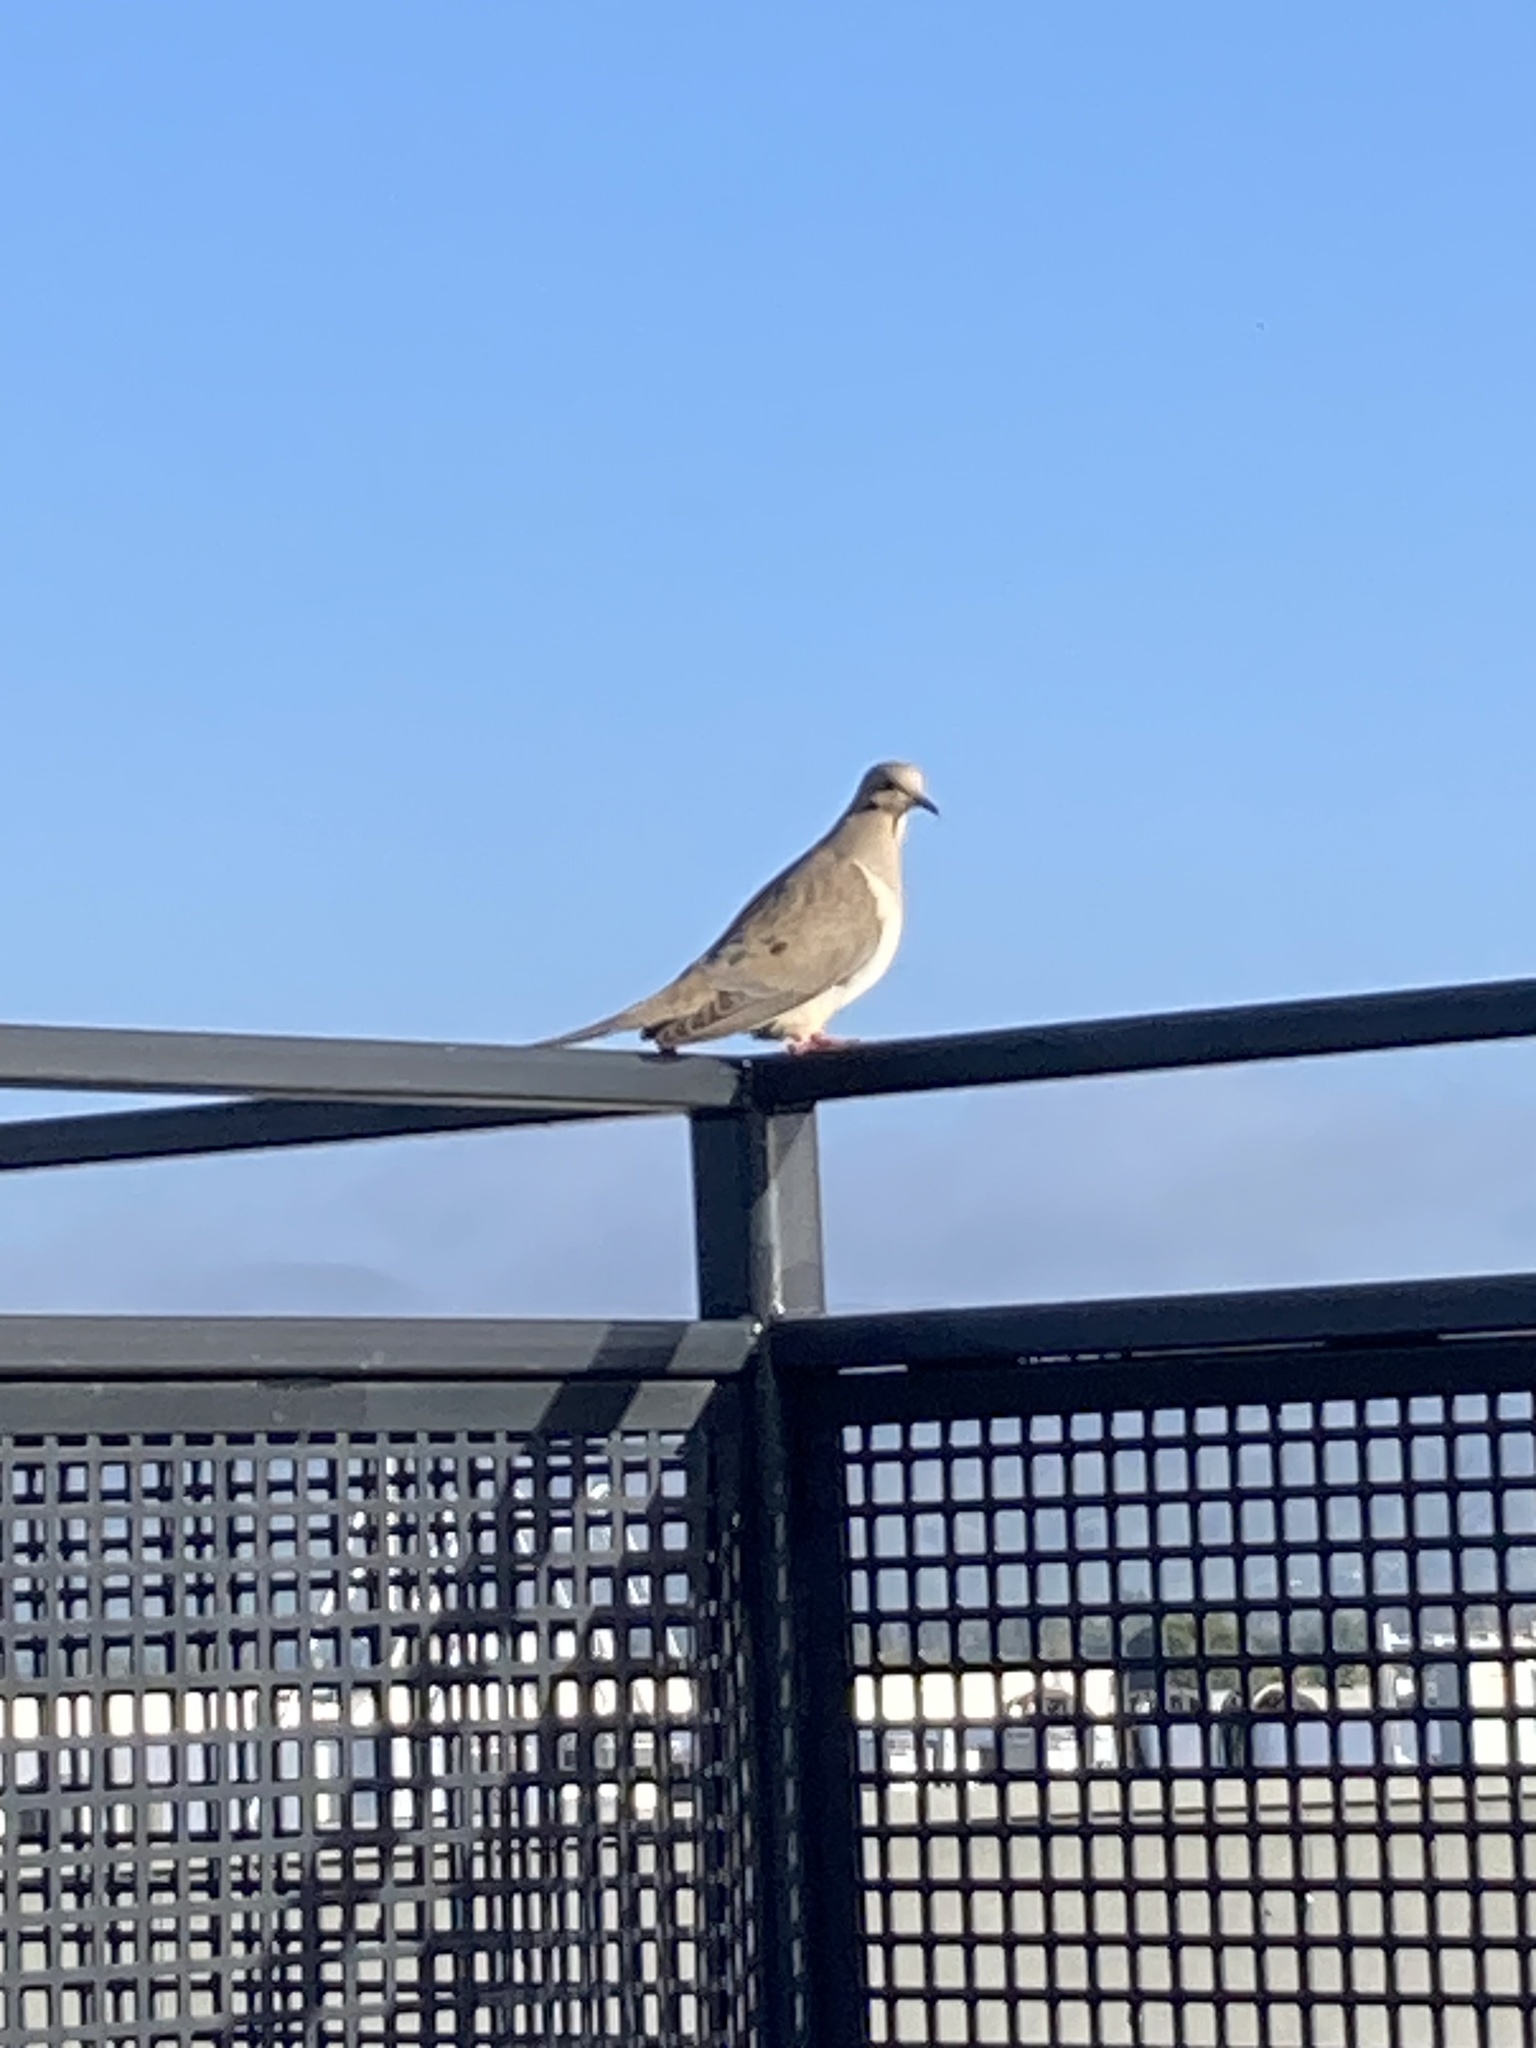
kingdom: Animalia
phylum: Chordata
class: Aves
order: Columbiformes
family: Columbidae
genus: Zenaida
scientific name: Zenaida macroura
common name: Mourning dove
